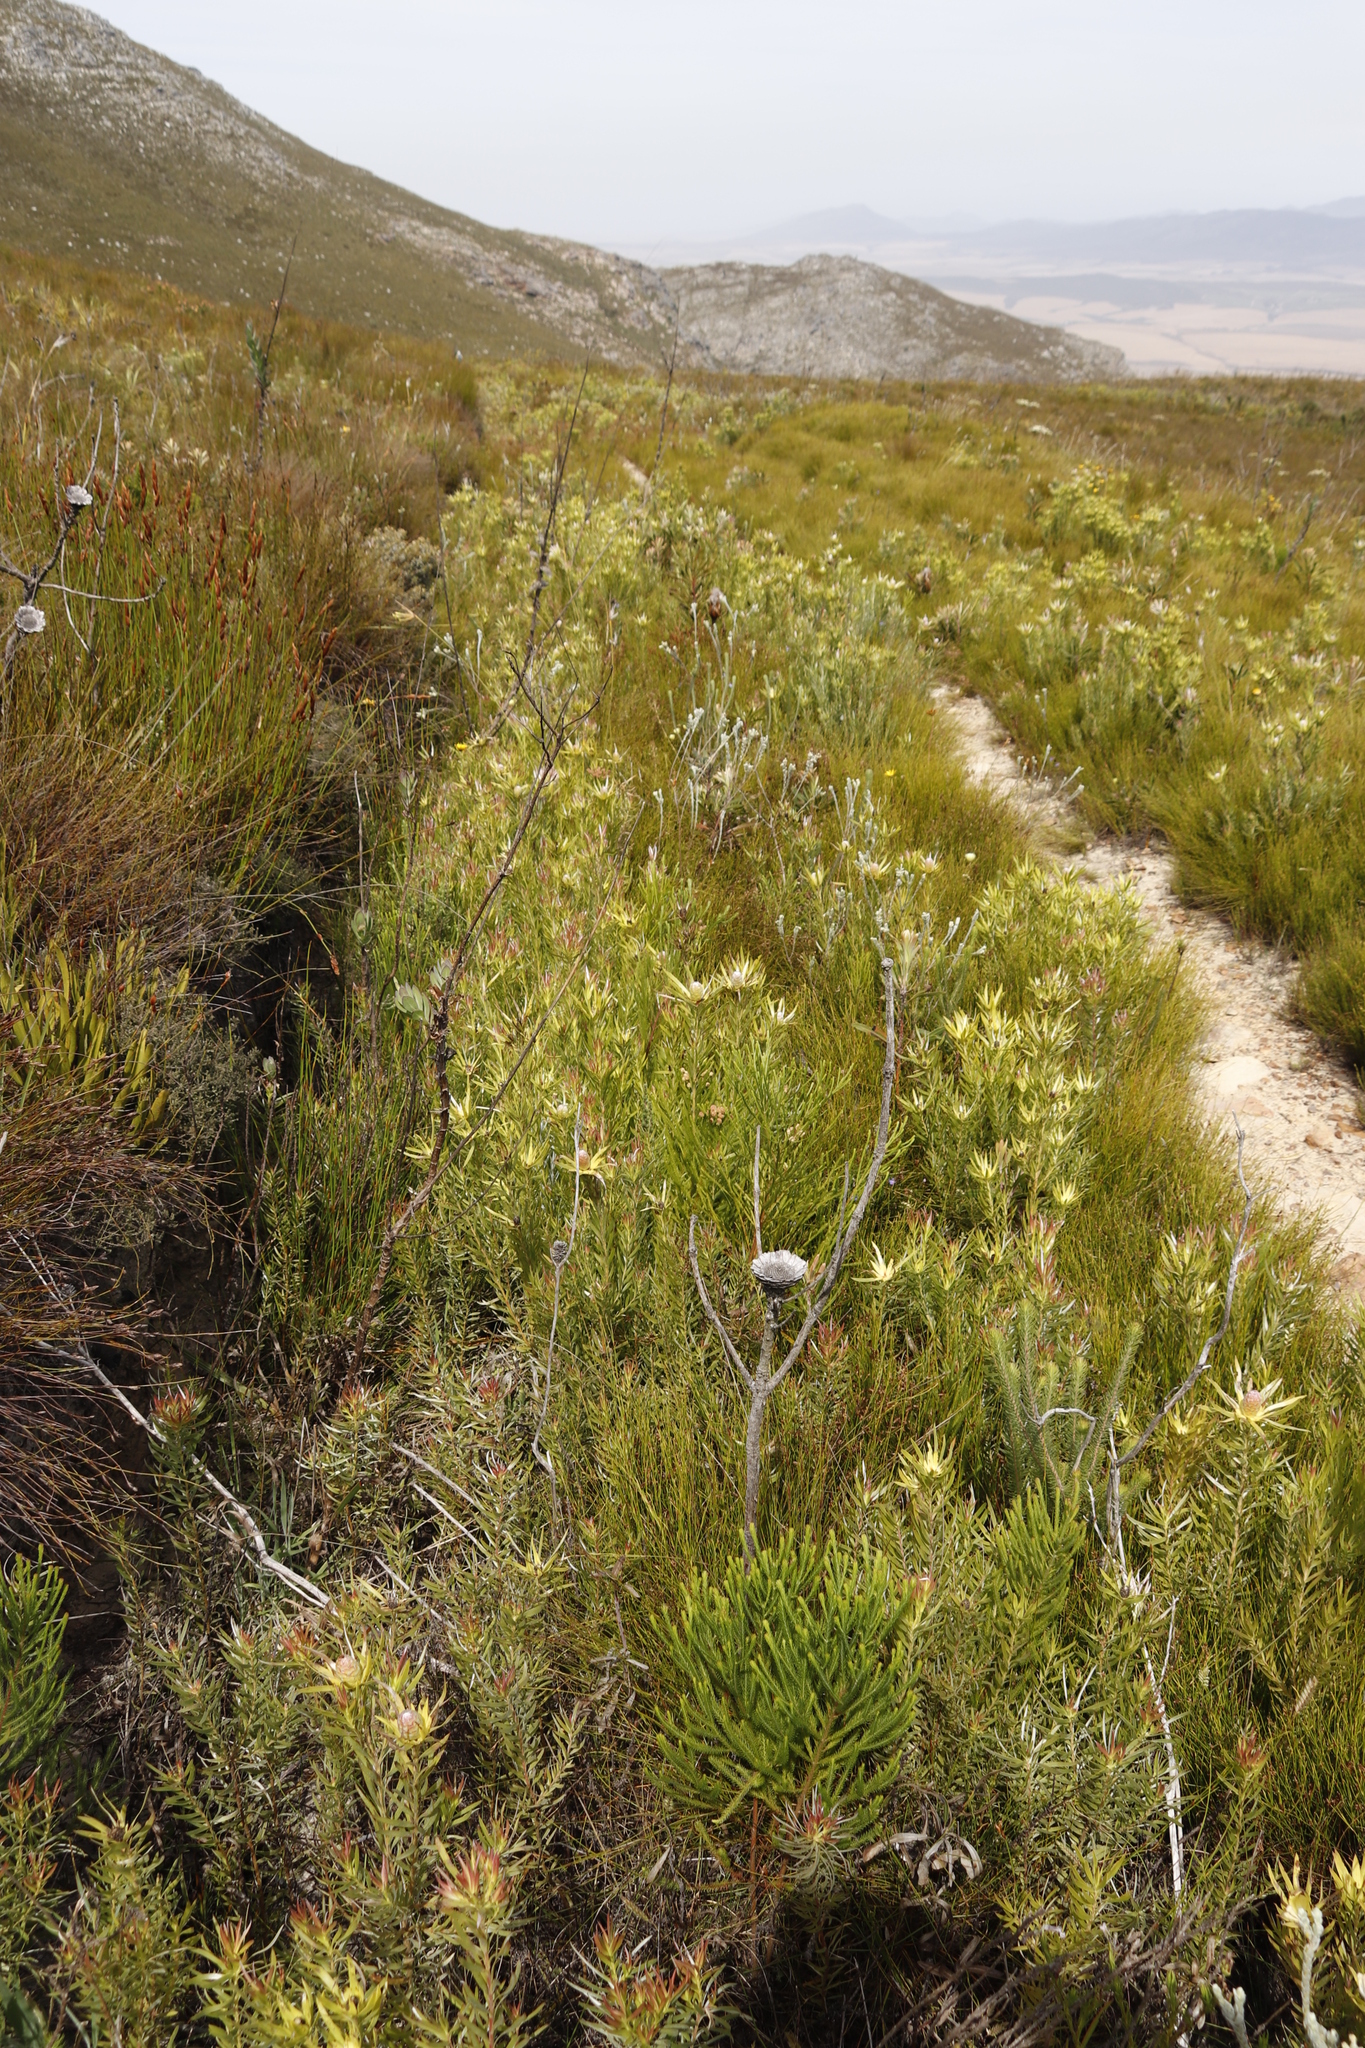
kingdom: Plantae
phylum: Tracheophyta
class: Magnoliopsida
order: Proteales
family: Proteaceae
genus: Leucadendron
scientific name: Leucadendron xanthoconus
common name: Sickle-leaf conebush
